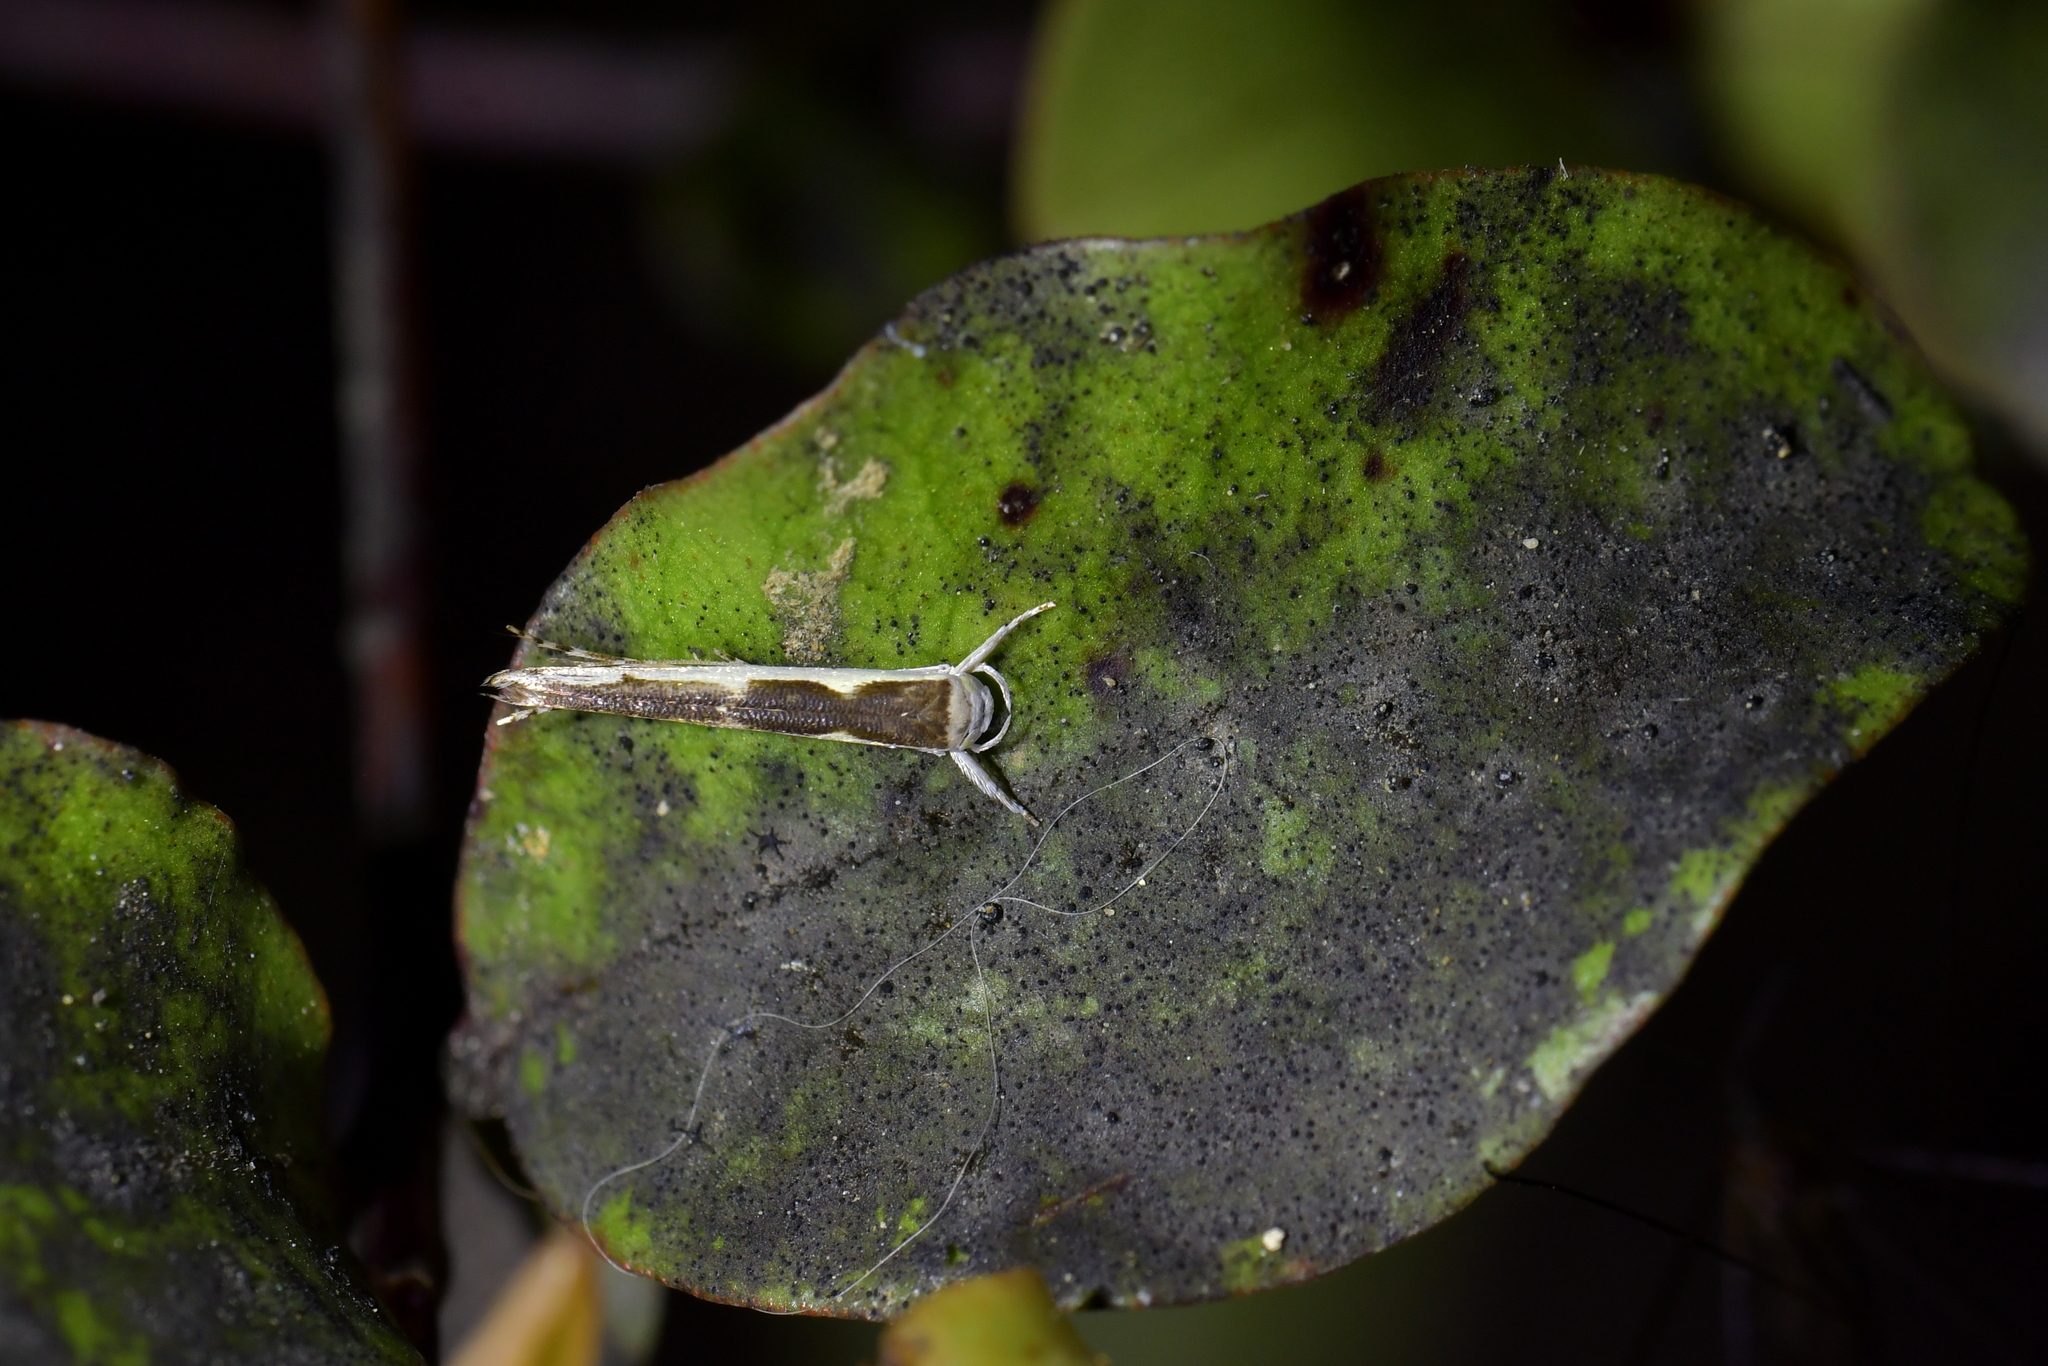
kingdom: Animalia
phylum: Arthropoda
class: Insecta
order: Lepidoptera
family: Roeslerstammiidae
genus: Vanicela
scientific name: Vanicela disjunctella
